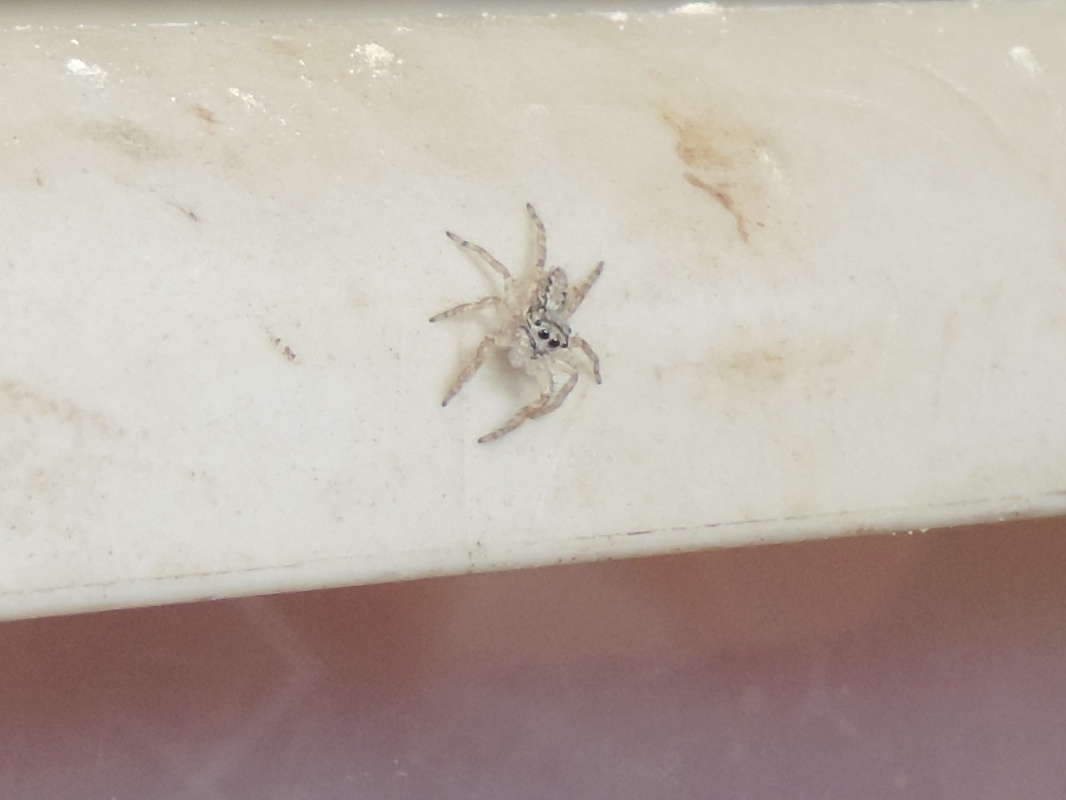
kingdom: Animalia
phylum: Arthropoda
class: Arachnida
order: Araneae
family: Salticidae
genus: Balmaceda
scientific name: Balmaceda
